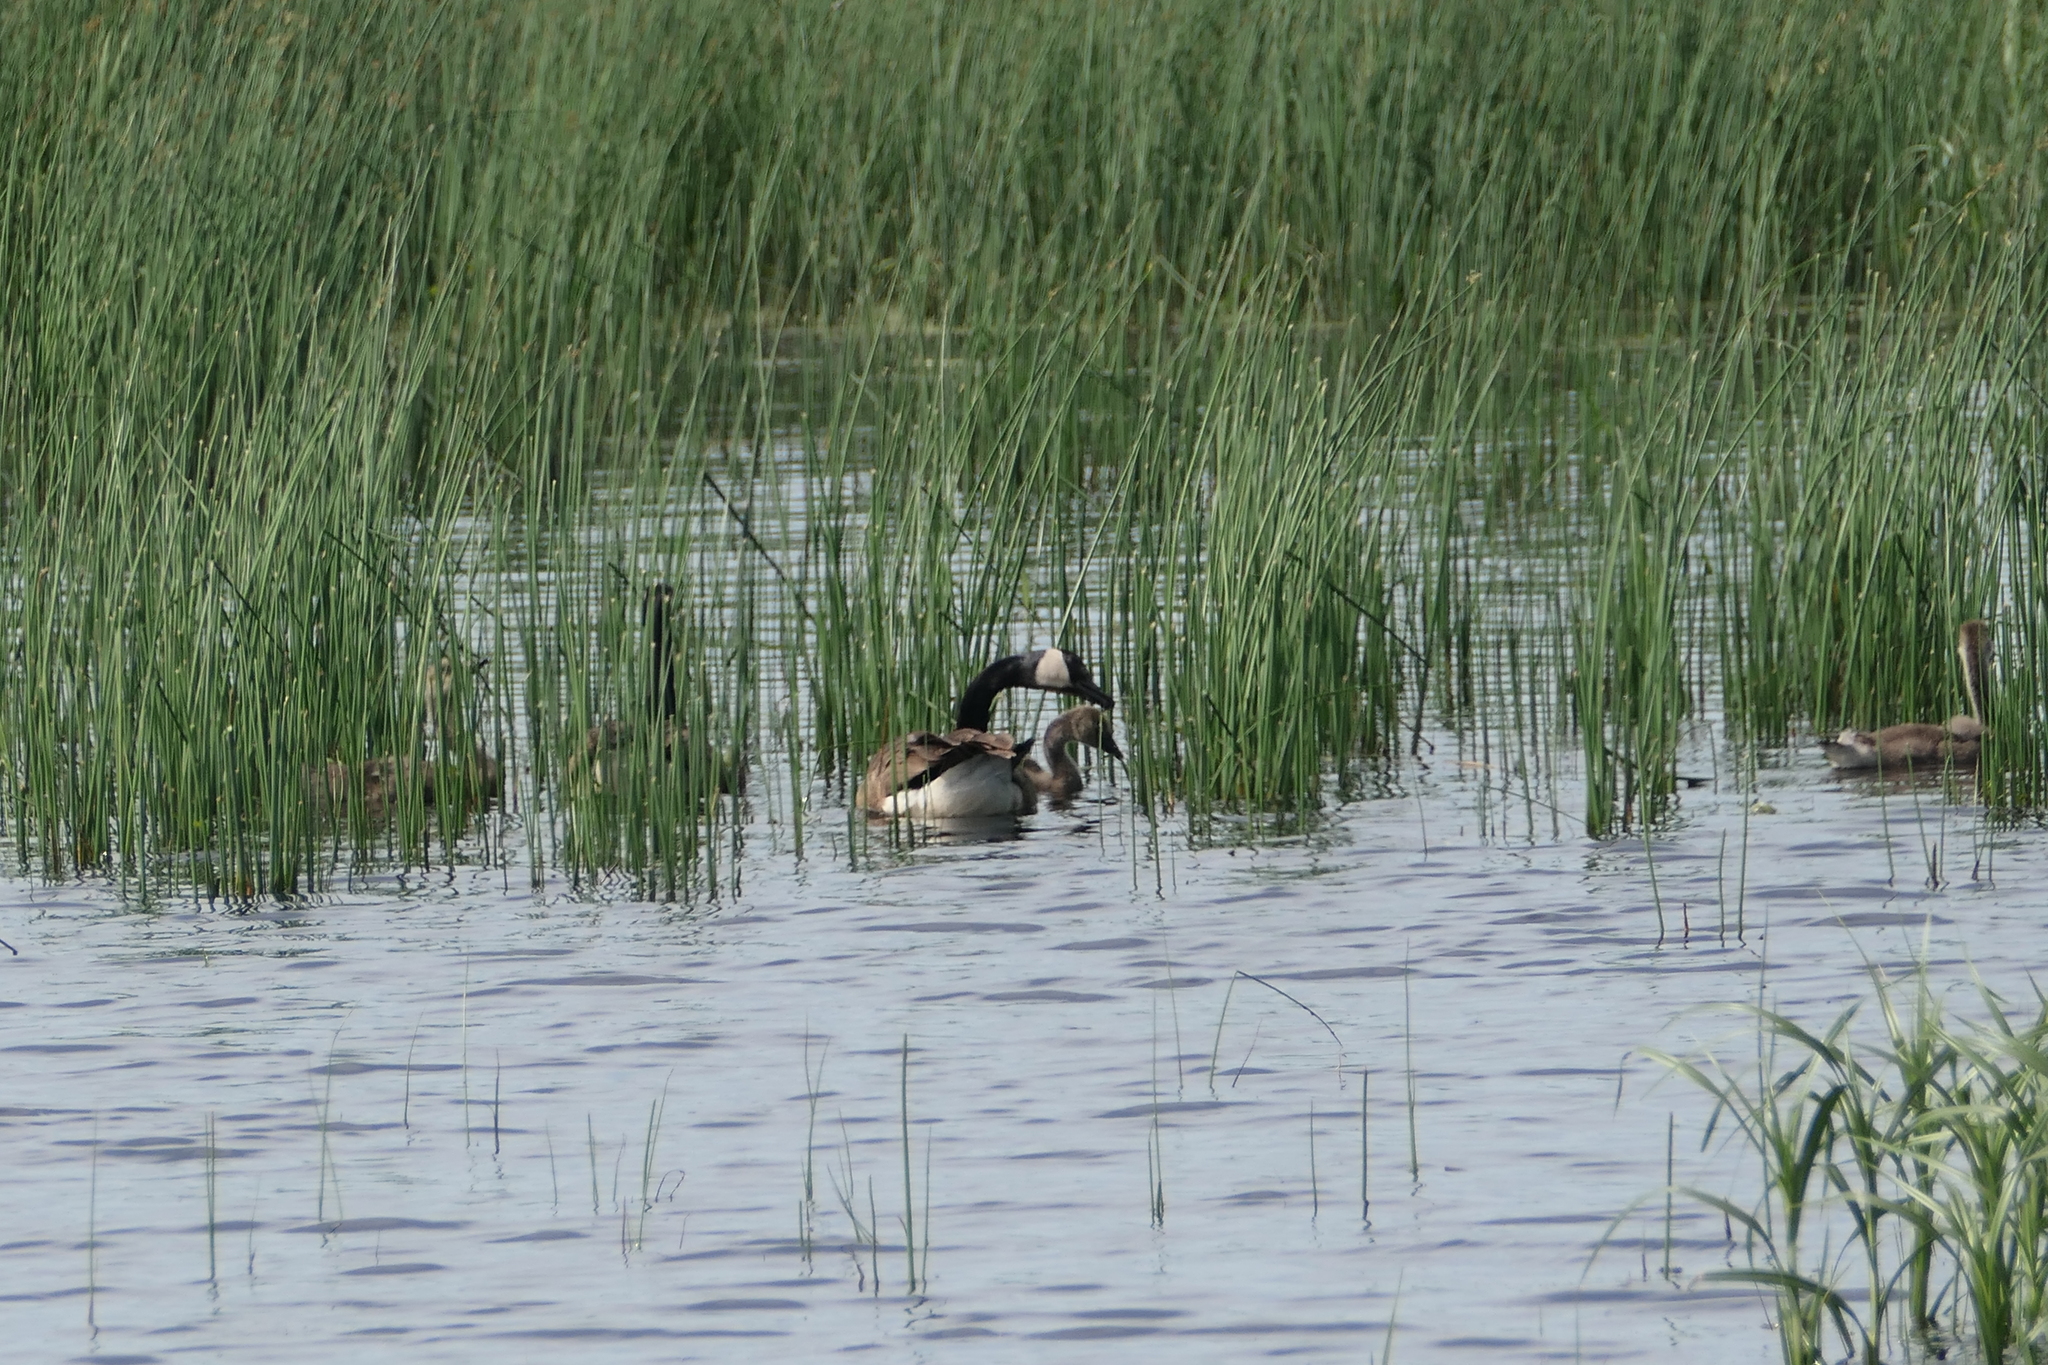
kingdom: Animalia
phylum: Chordata
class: Aves
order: Anseriformes
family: Anatidae
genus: Branta
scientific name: Branta canadensis
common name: Canada goose
